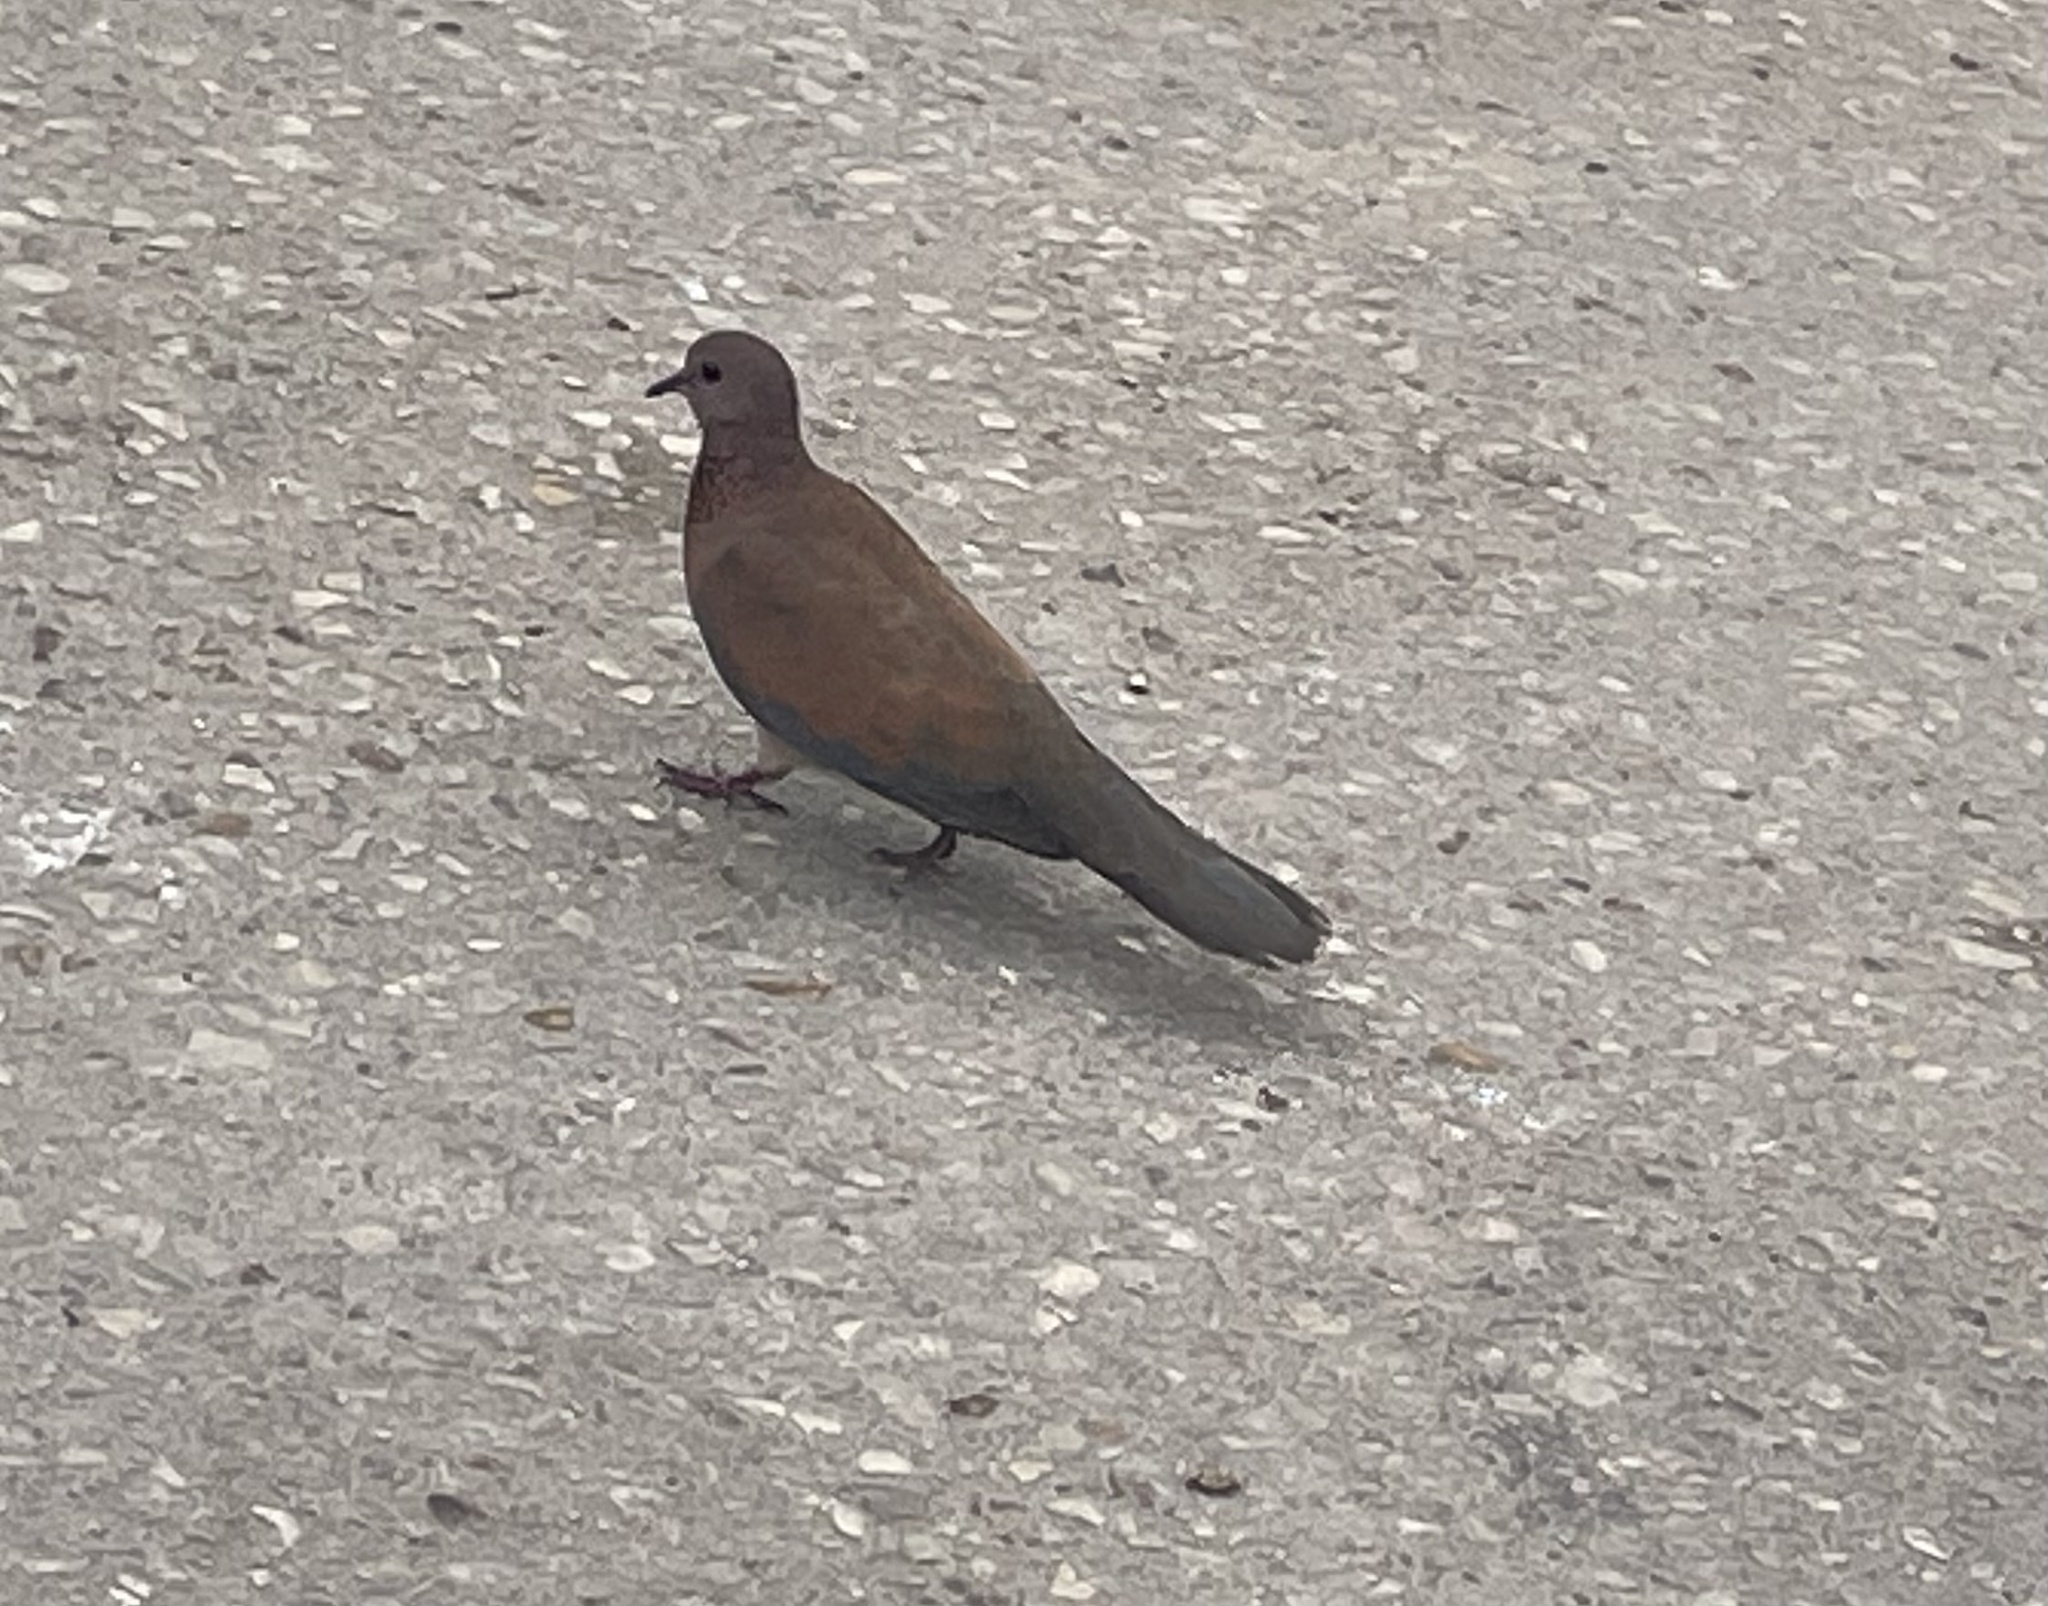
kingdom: Animalia
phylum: Chordata
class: Aves
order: Columbiformes
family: Columbidae
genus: Spilopelia
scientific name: Spilopelia senegalensis
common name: Laughing dove
